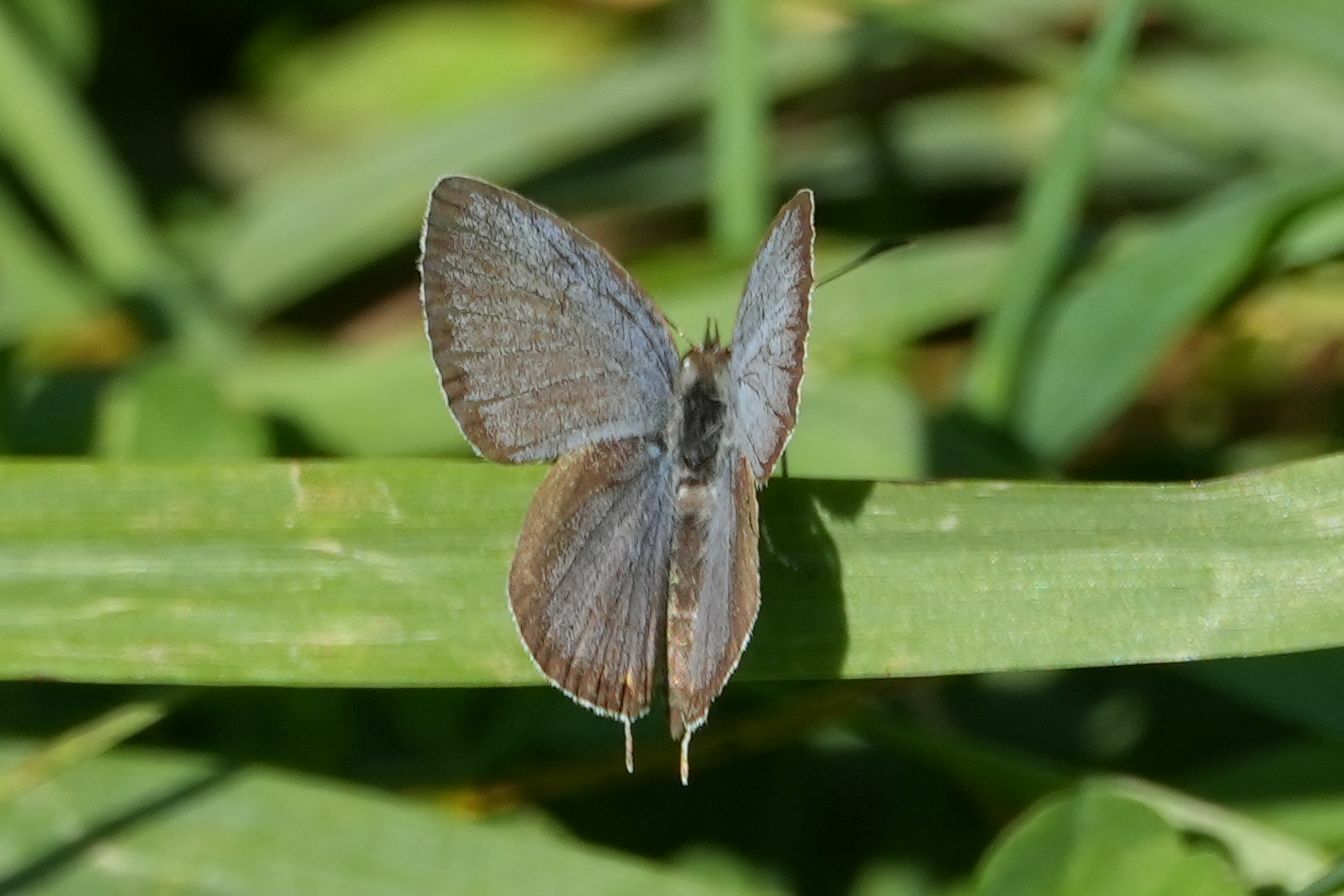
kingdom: Animalia
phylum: Arthropoda
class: Insecta
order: Lepidoptera
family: Lycaenidae
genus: Elkalyce
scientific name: Elkalyce comyntas
